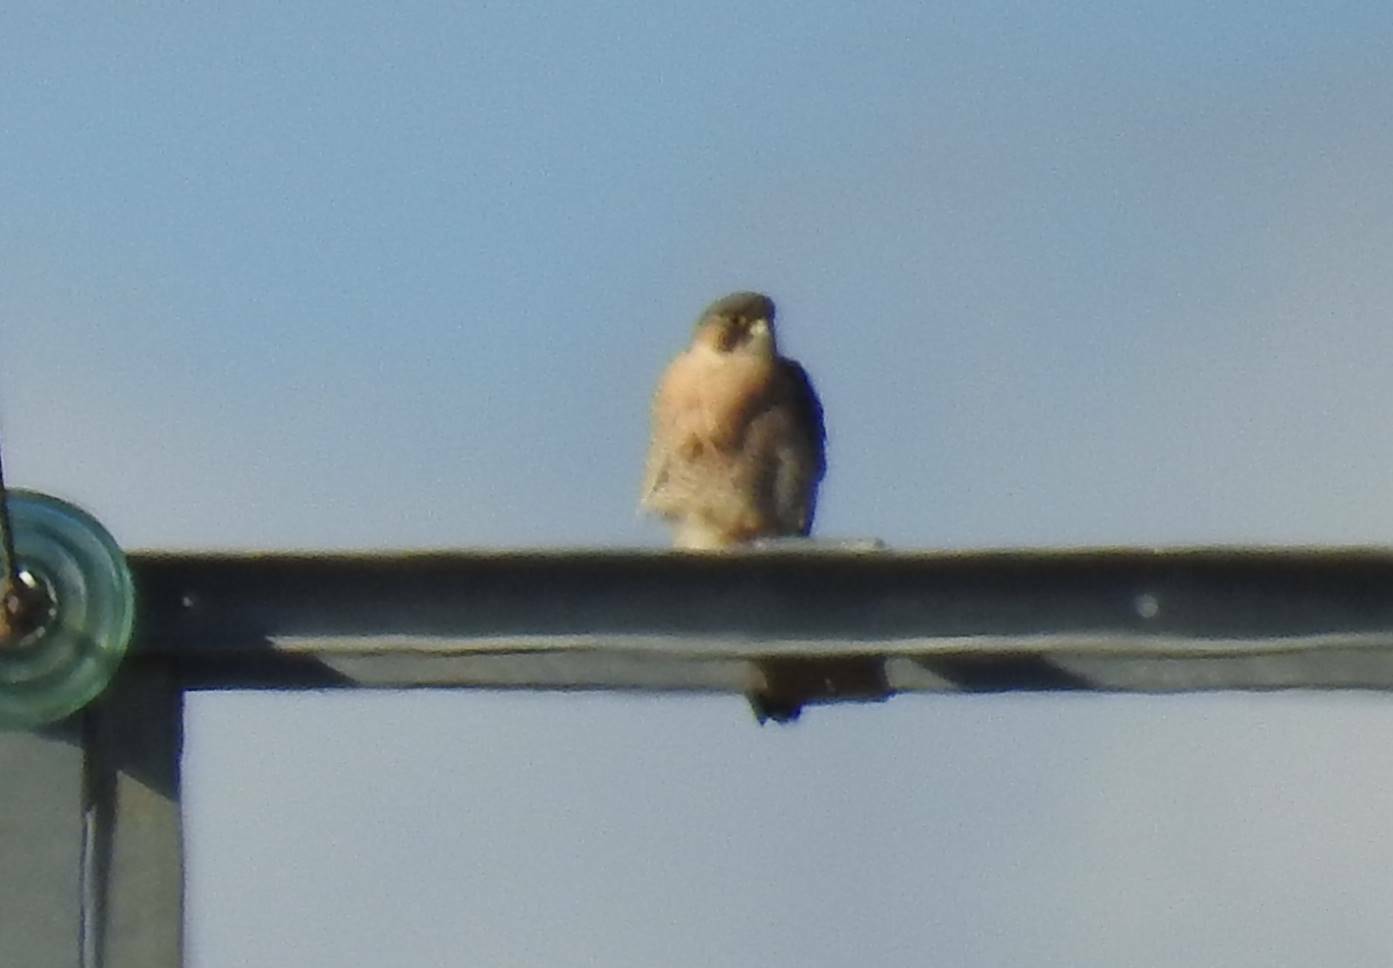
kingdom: Animalia
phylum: Chordata
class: Aves
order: Falconiformes
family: Falconidae
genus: Falco
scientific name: Falco peregrinus
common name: Peregrine falcon
